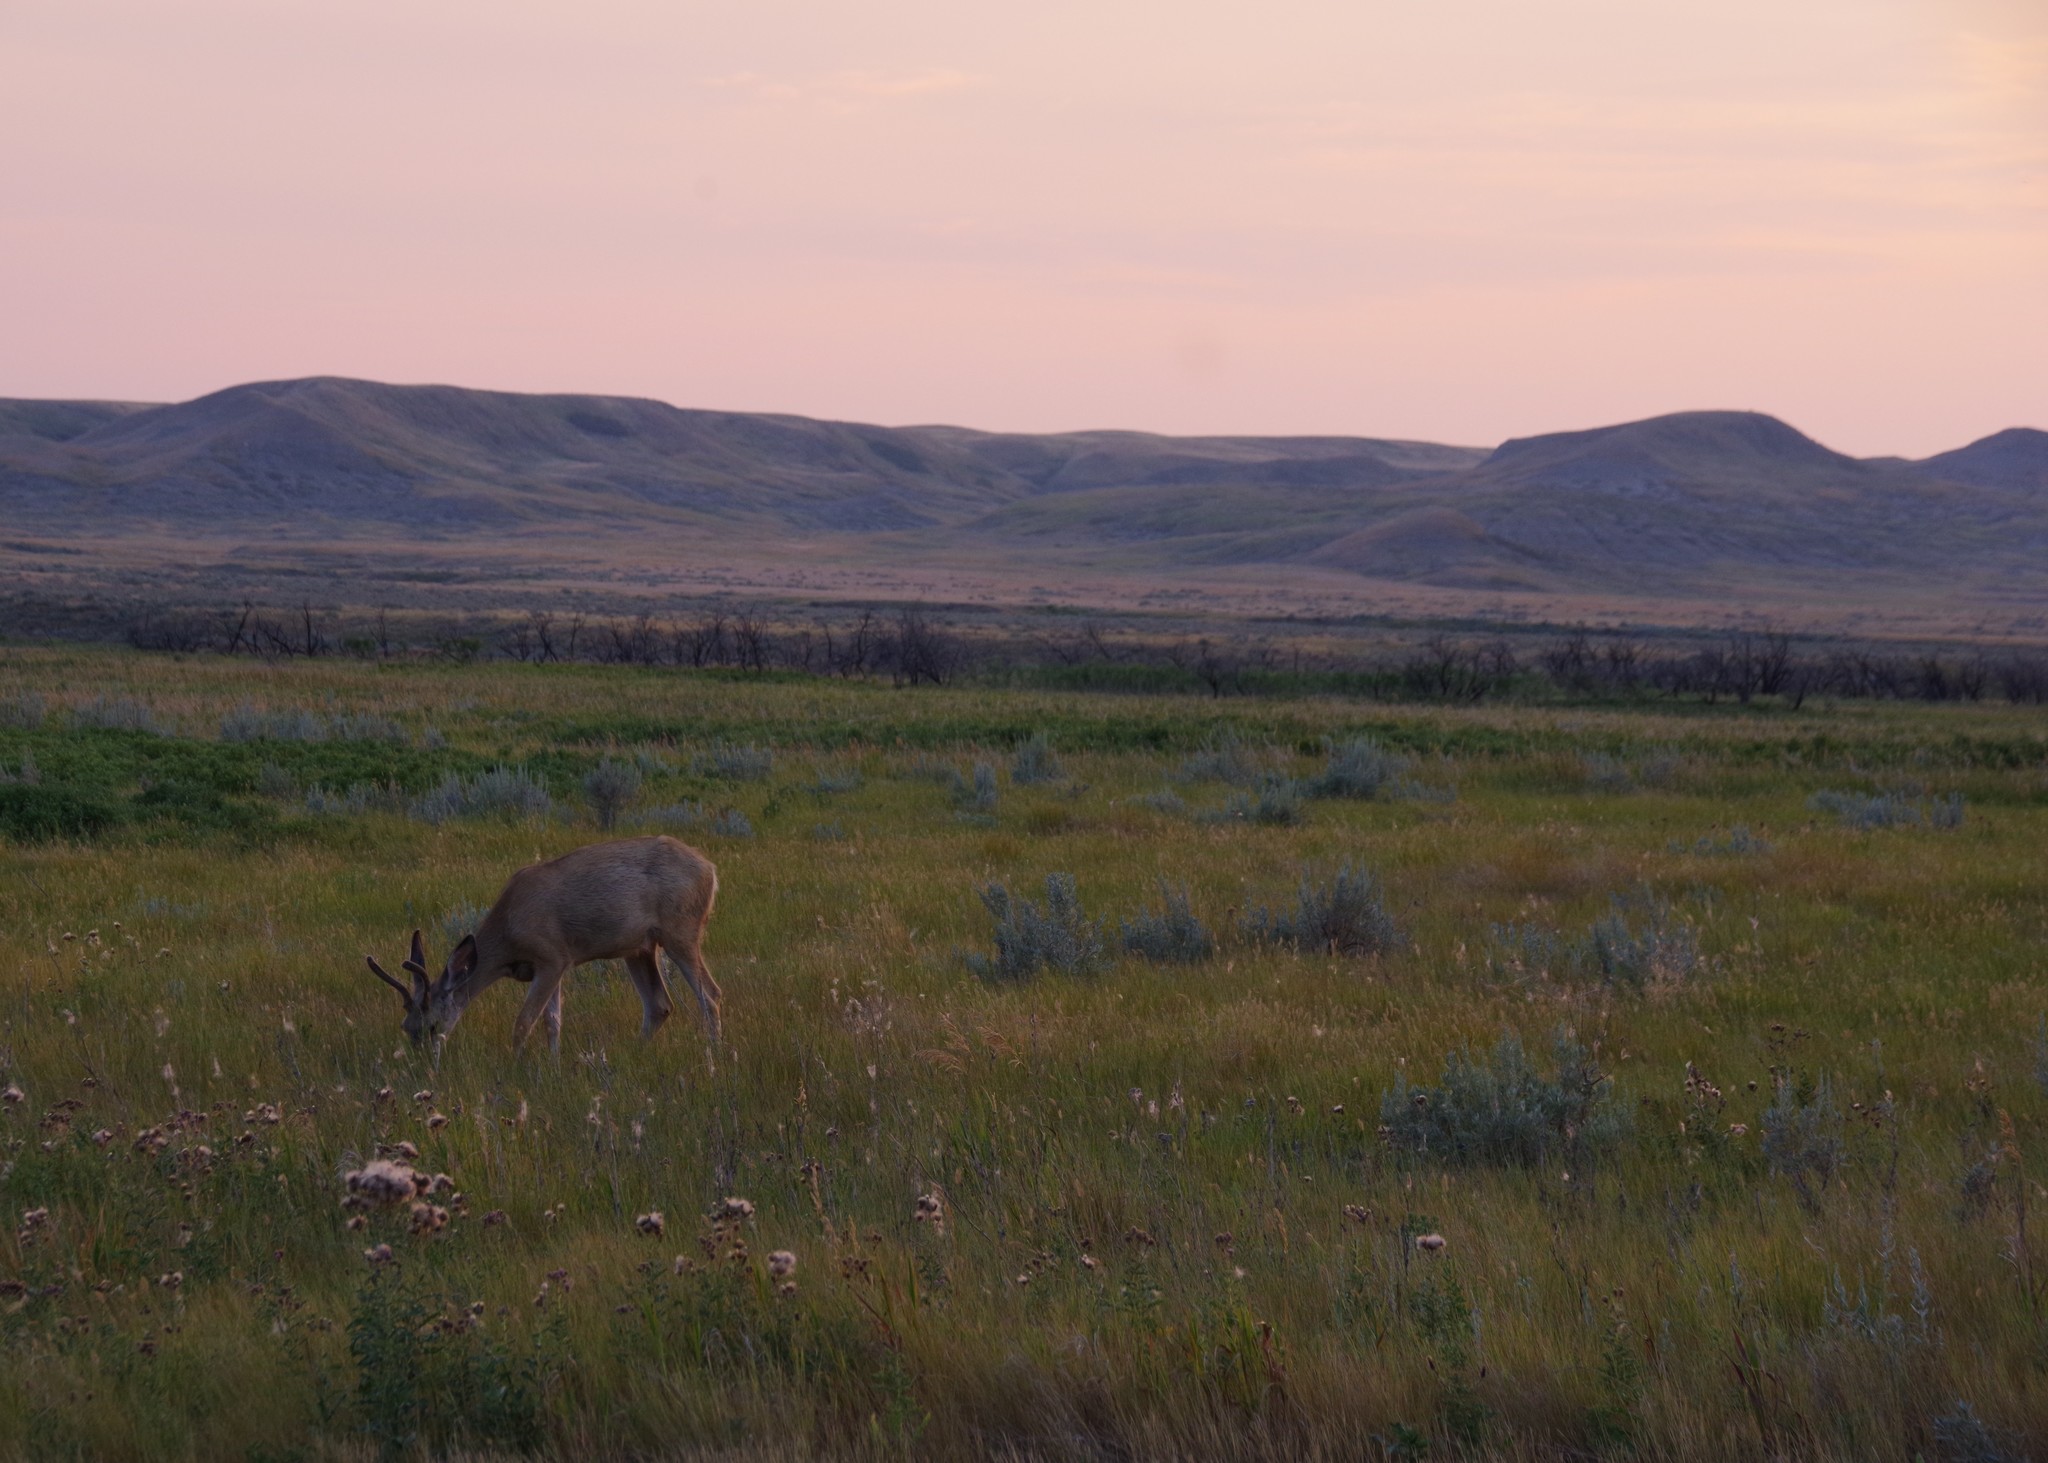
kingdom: Animalia
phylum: Chordata
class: Mammalia
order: Artiodactyla
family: Cervidae
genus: Odocoileus
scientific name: Odocoileus hemionus
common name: Mule deer
